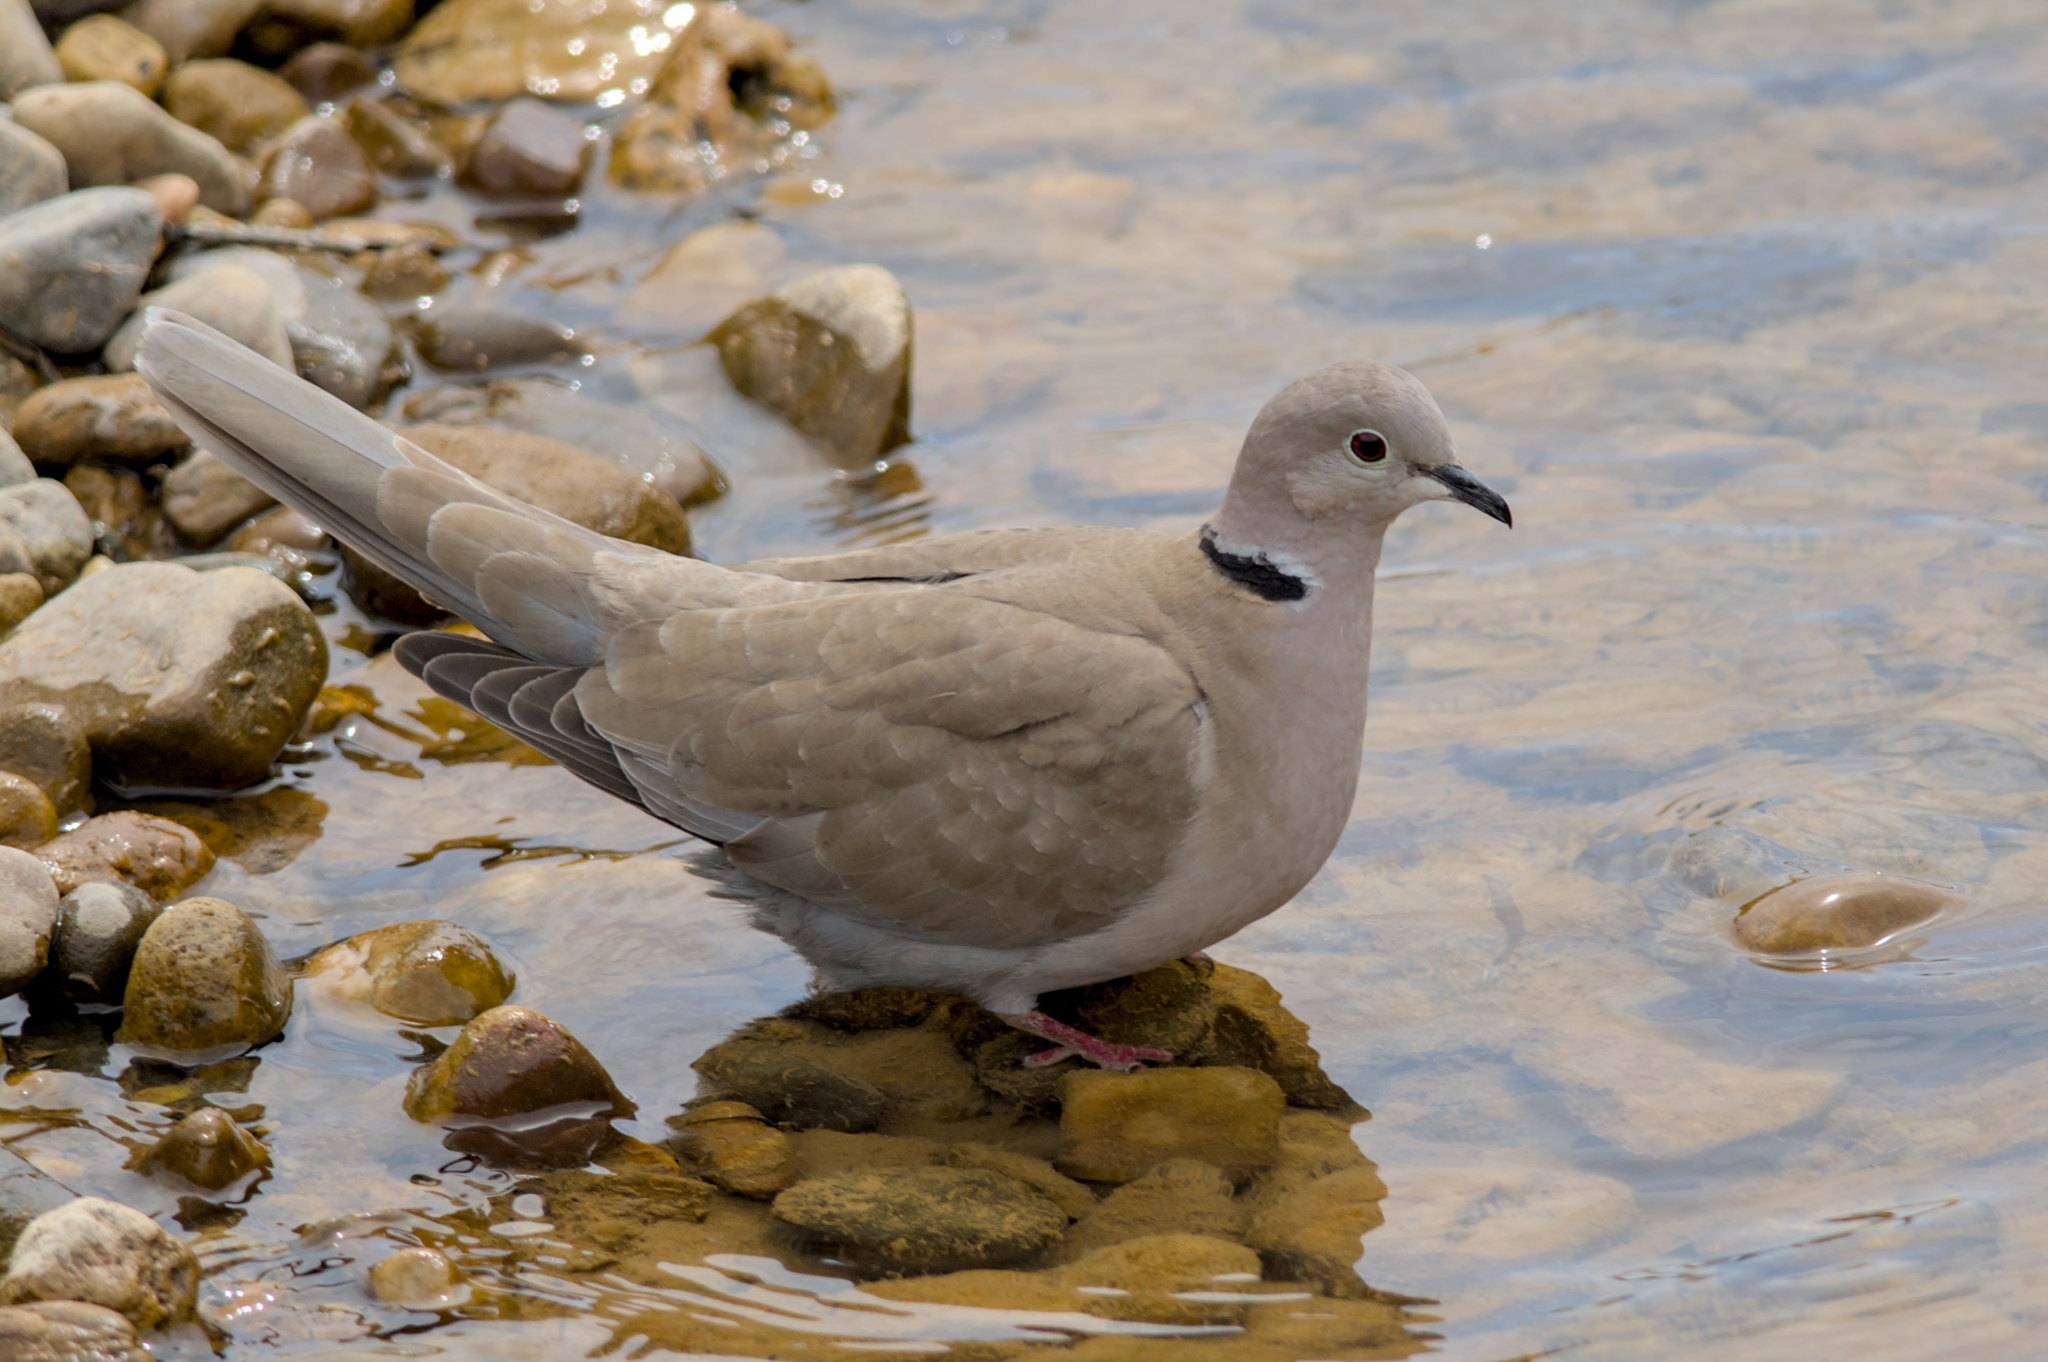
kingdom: Animalia
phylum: Chordata
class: Aves
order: Columbiformes
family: Columbidae
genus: Streptopelia
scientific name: Streptopelia decaocto
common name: Eurasian collared dove
